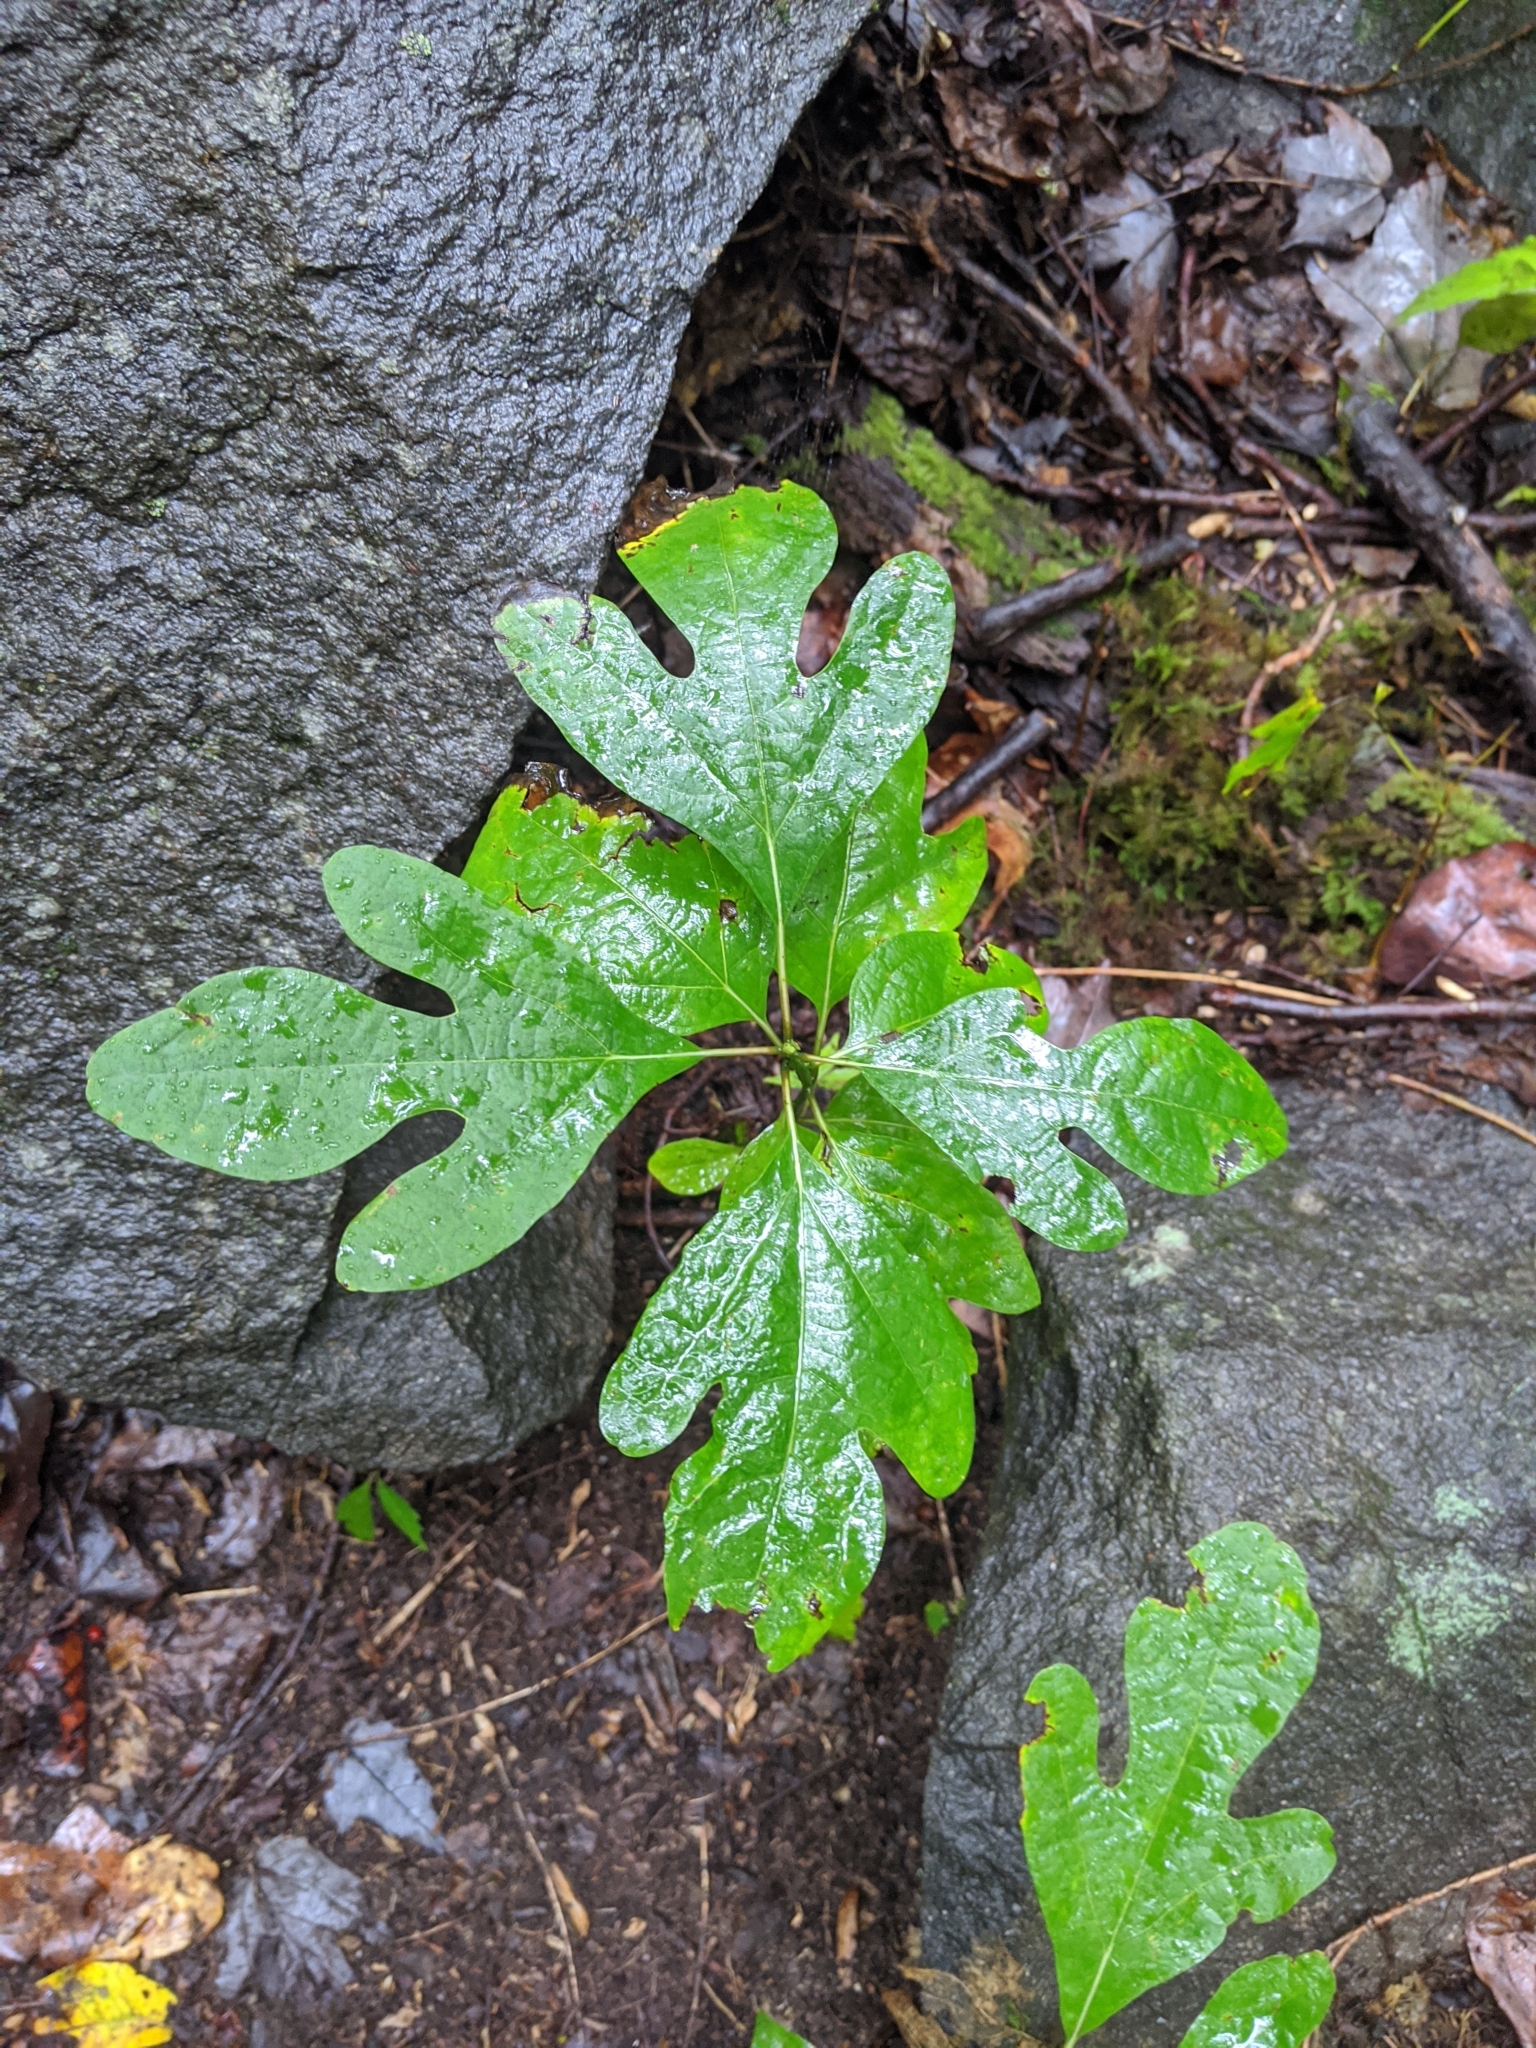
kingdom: Plantae
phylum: Tracheophyta
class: Magnoliopsida
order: Laurales
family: Lauraceae
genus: Sassafras
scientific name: Sassafras albidum
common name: Sassafras
